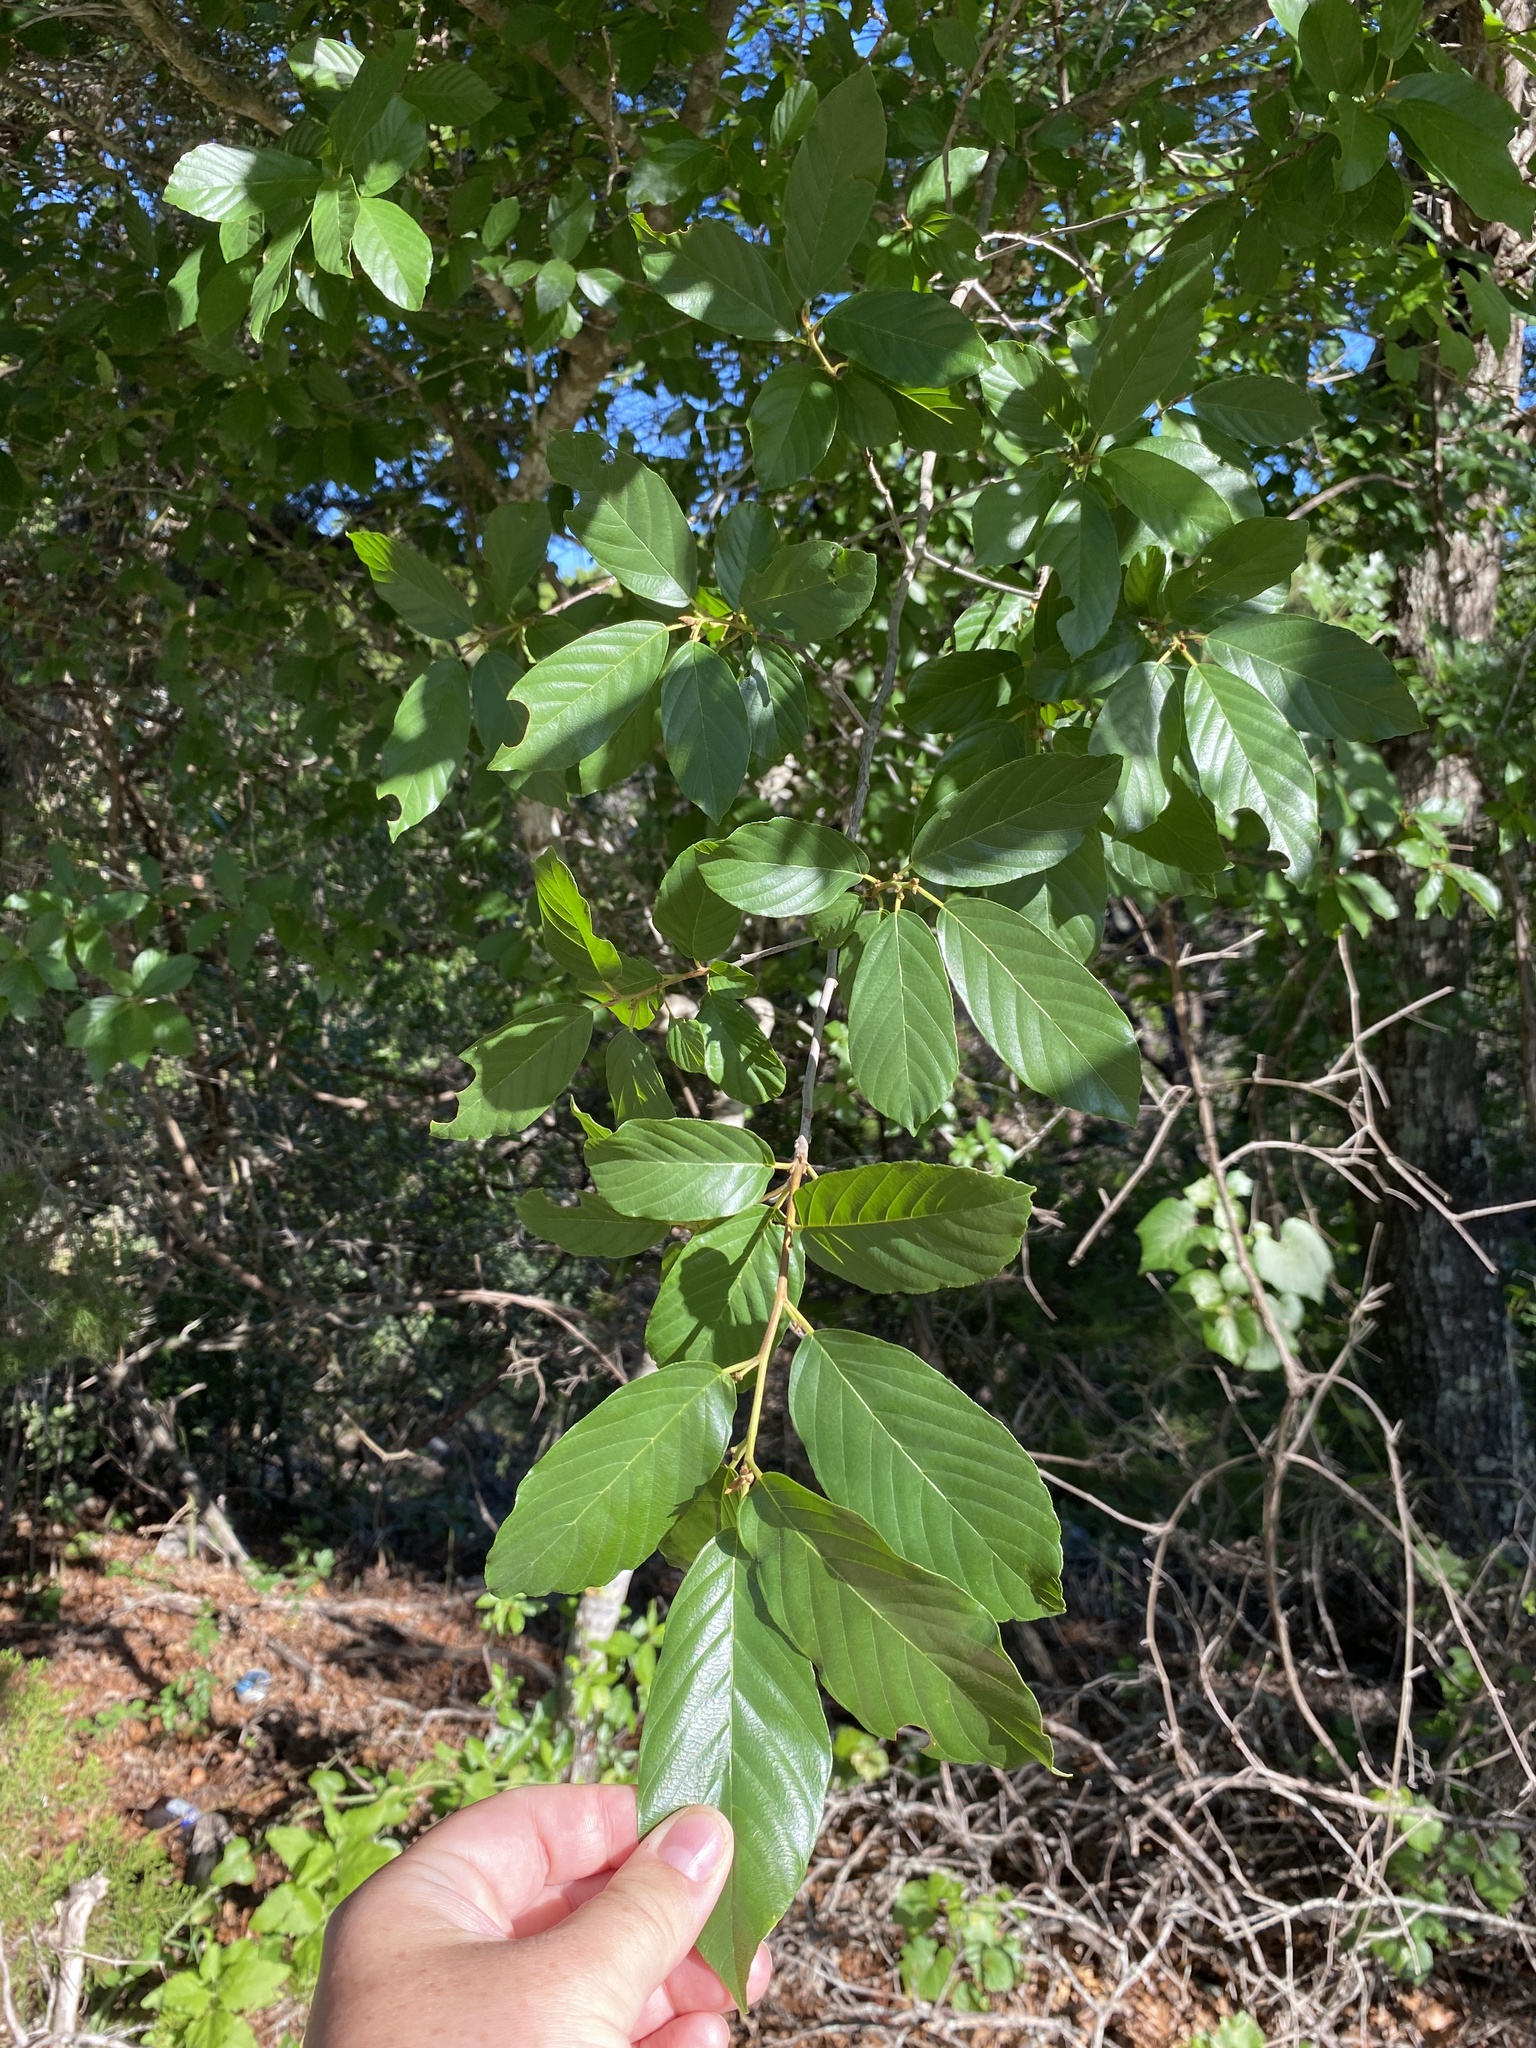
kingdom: Plantae
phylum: Tracheophyta
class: Magnoliopsida
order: Rosales
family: Rhamnaceae
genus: Frangula
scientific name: Frangula caroliniana
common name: Carolina buckthorn
